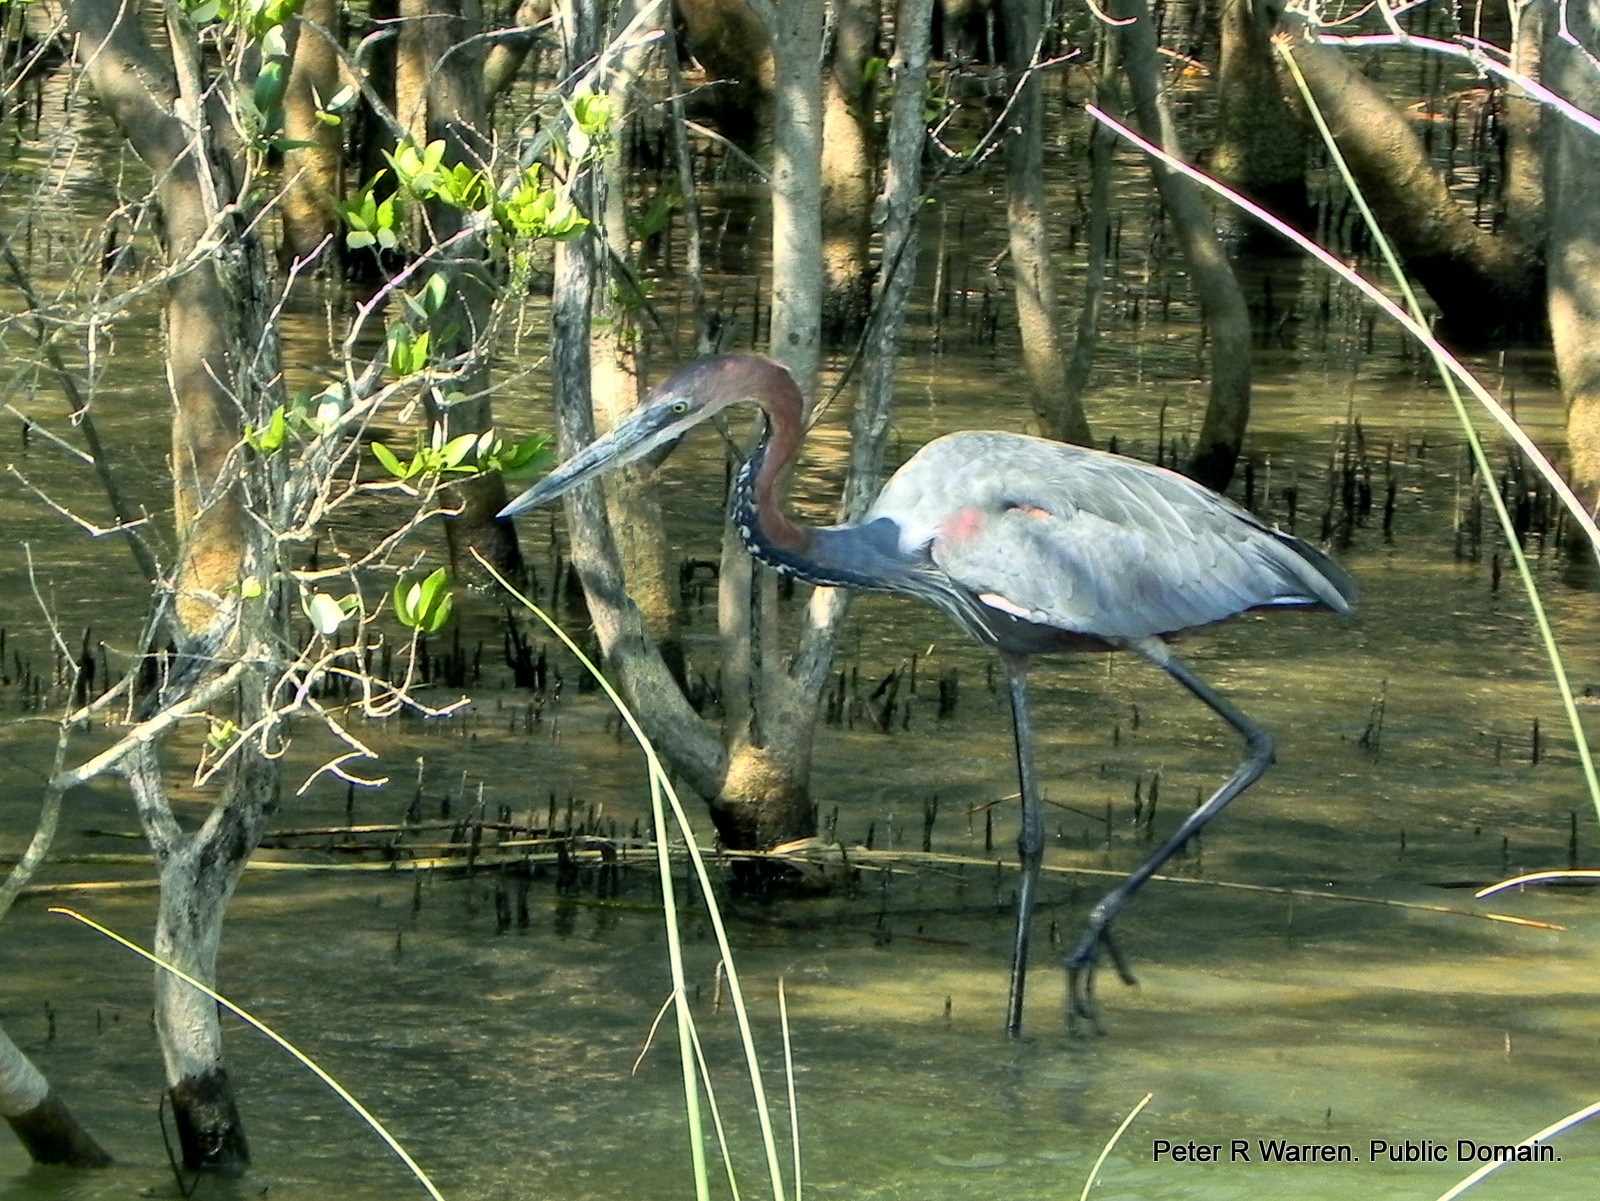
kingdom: Animalia
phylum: Chordata
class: Aves
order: Pelecaniformes
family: Ardeidae
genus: Ardea
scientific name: Ardea goliath
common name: Goliath heron
